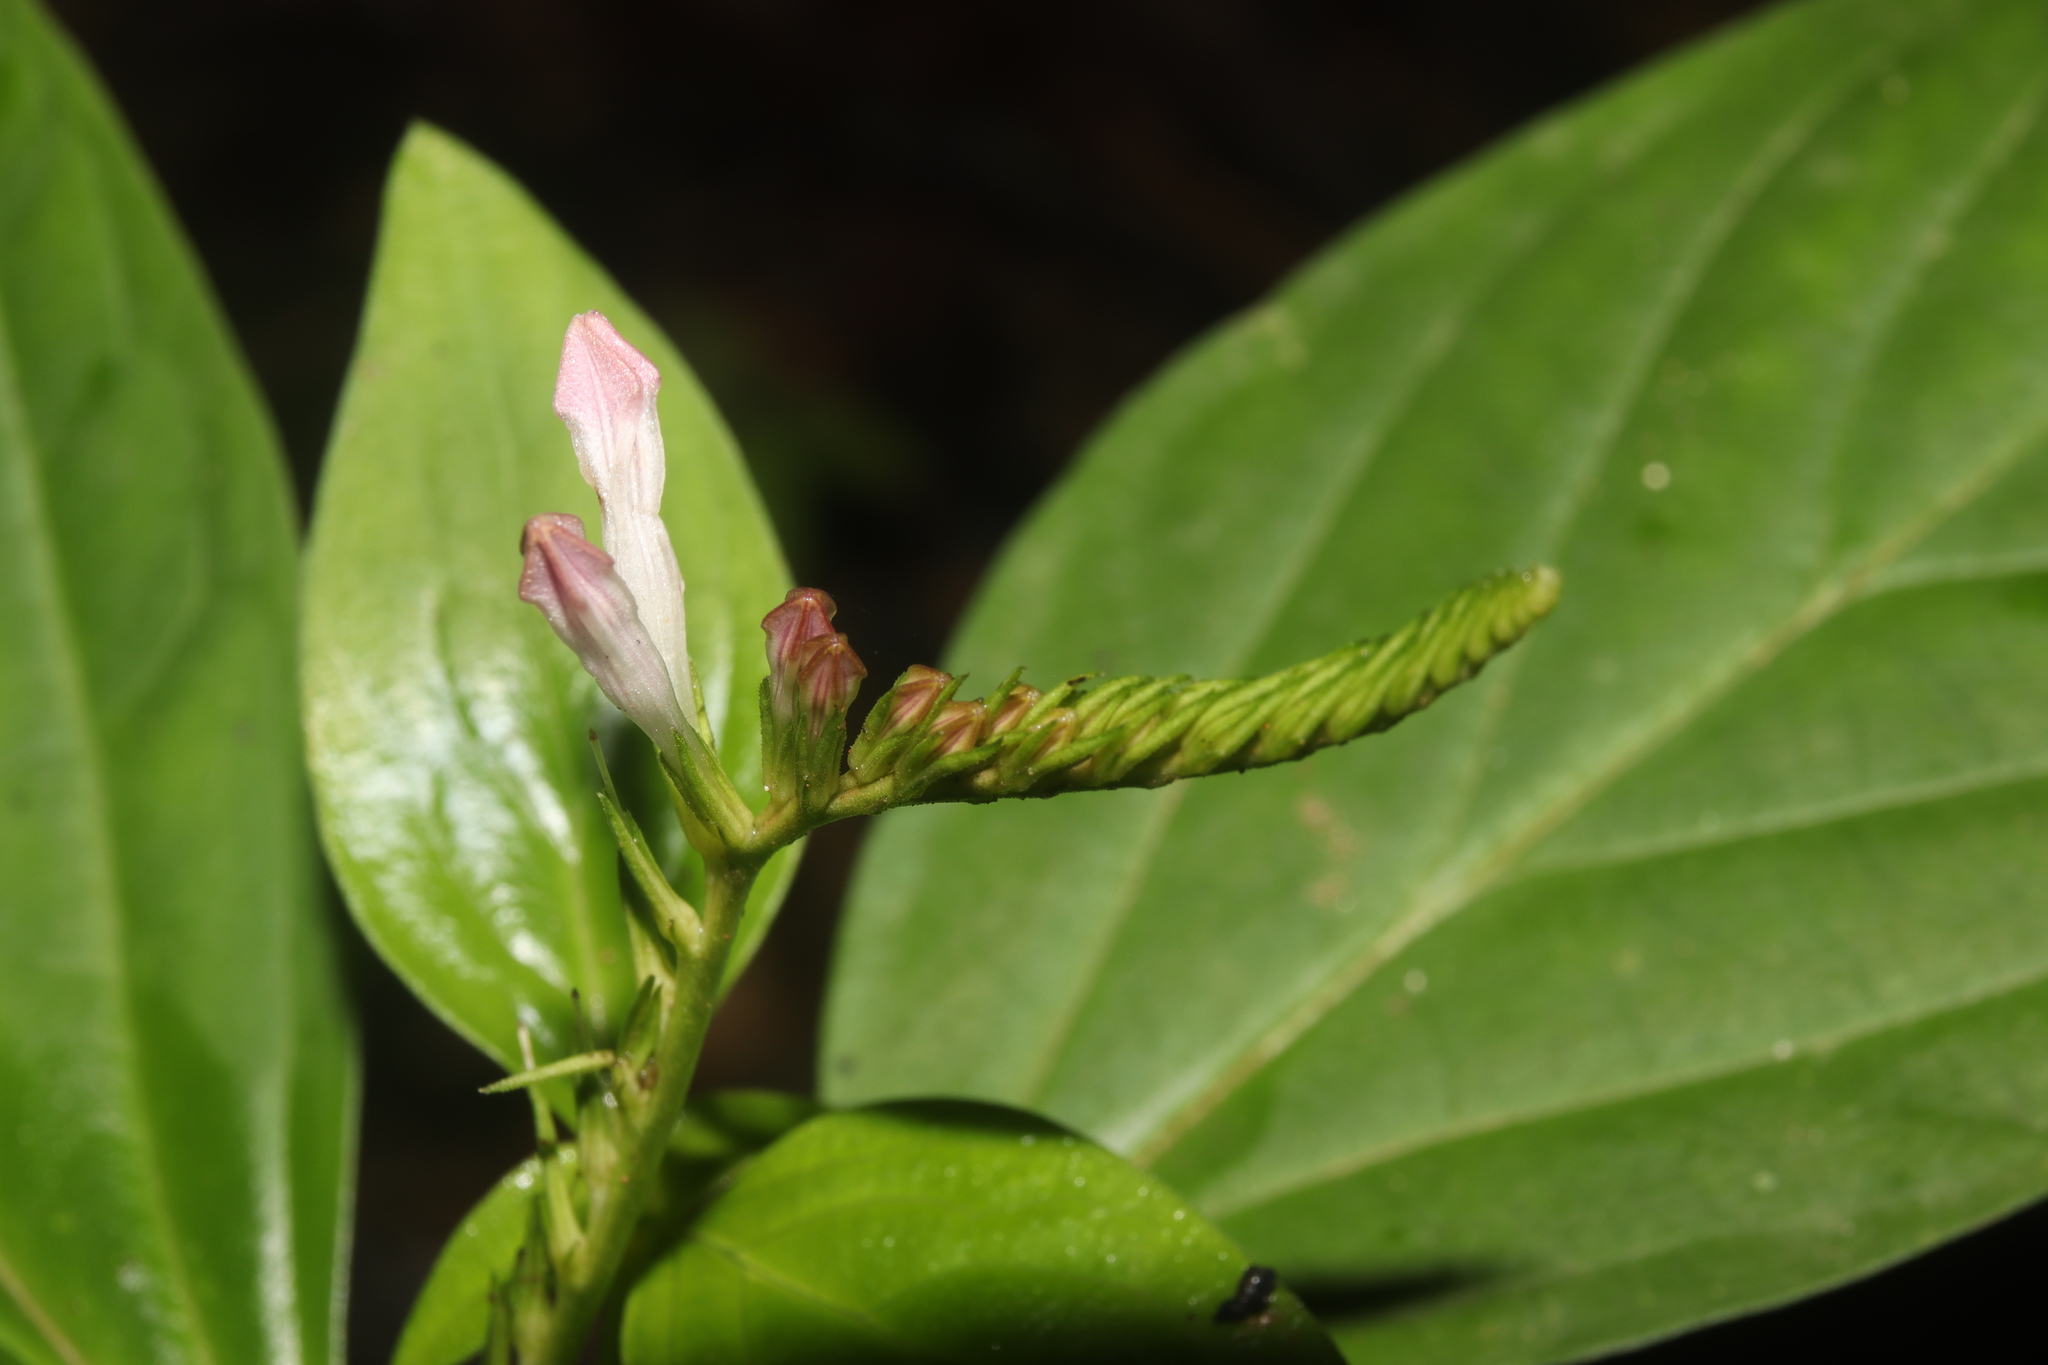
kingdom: Plantae
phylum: Tracheophyta
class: Magnoliopsida
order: Gentianales
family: Loganiaceae
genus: Spigelia
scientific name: Spigelia anthelmia
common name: West indian-pink
